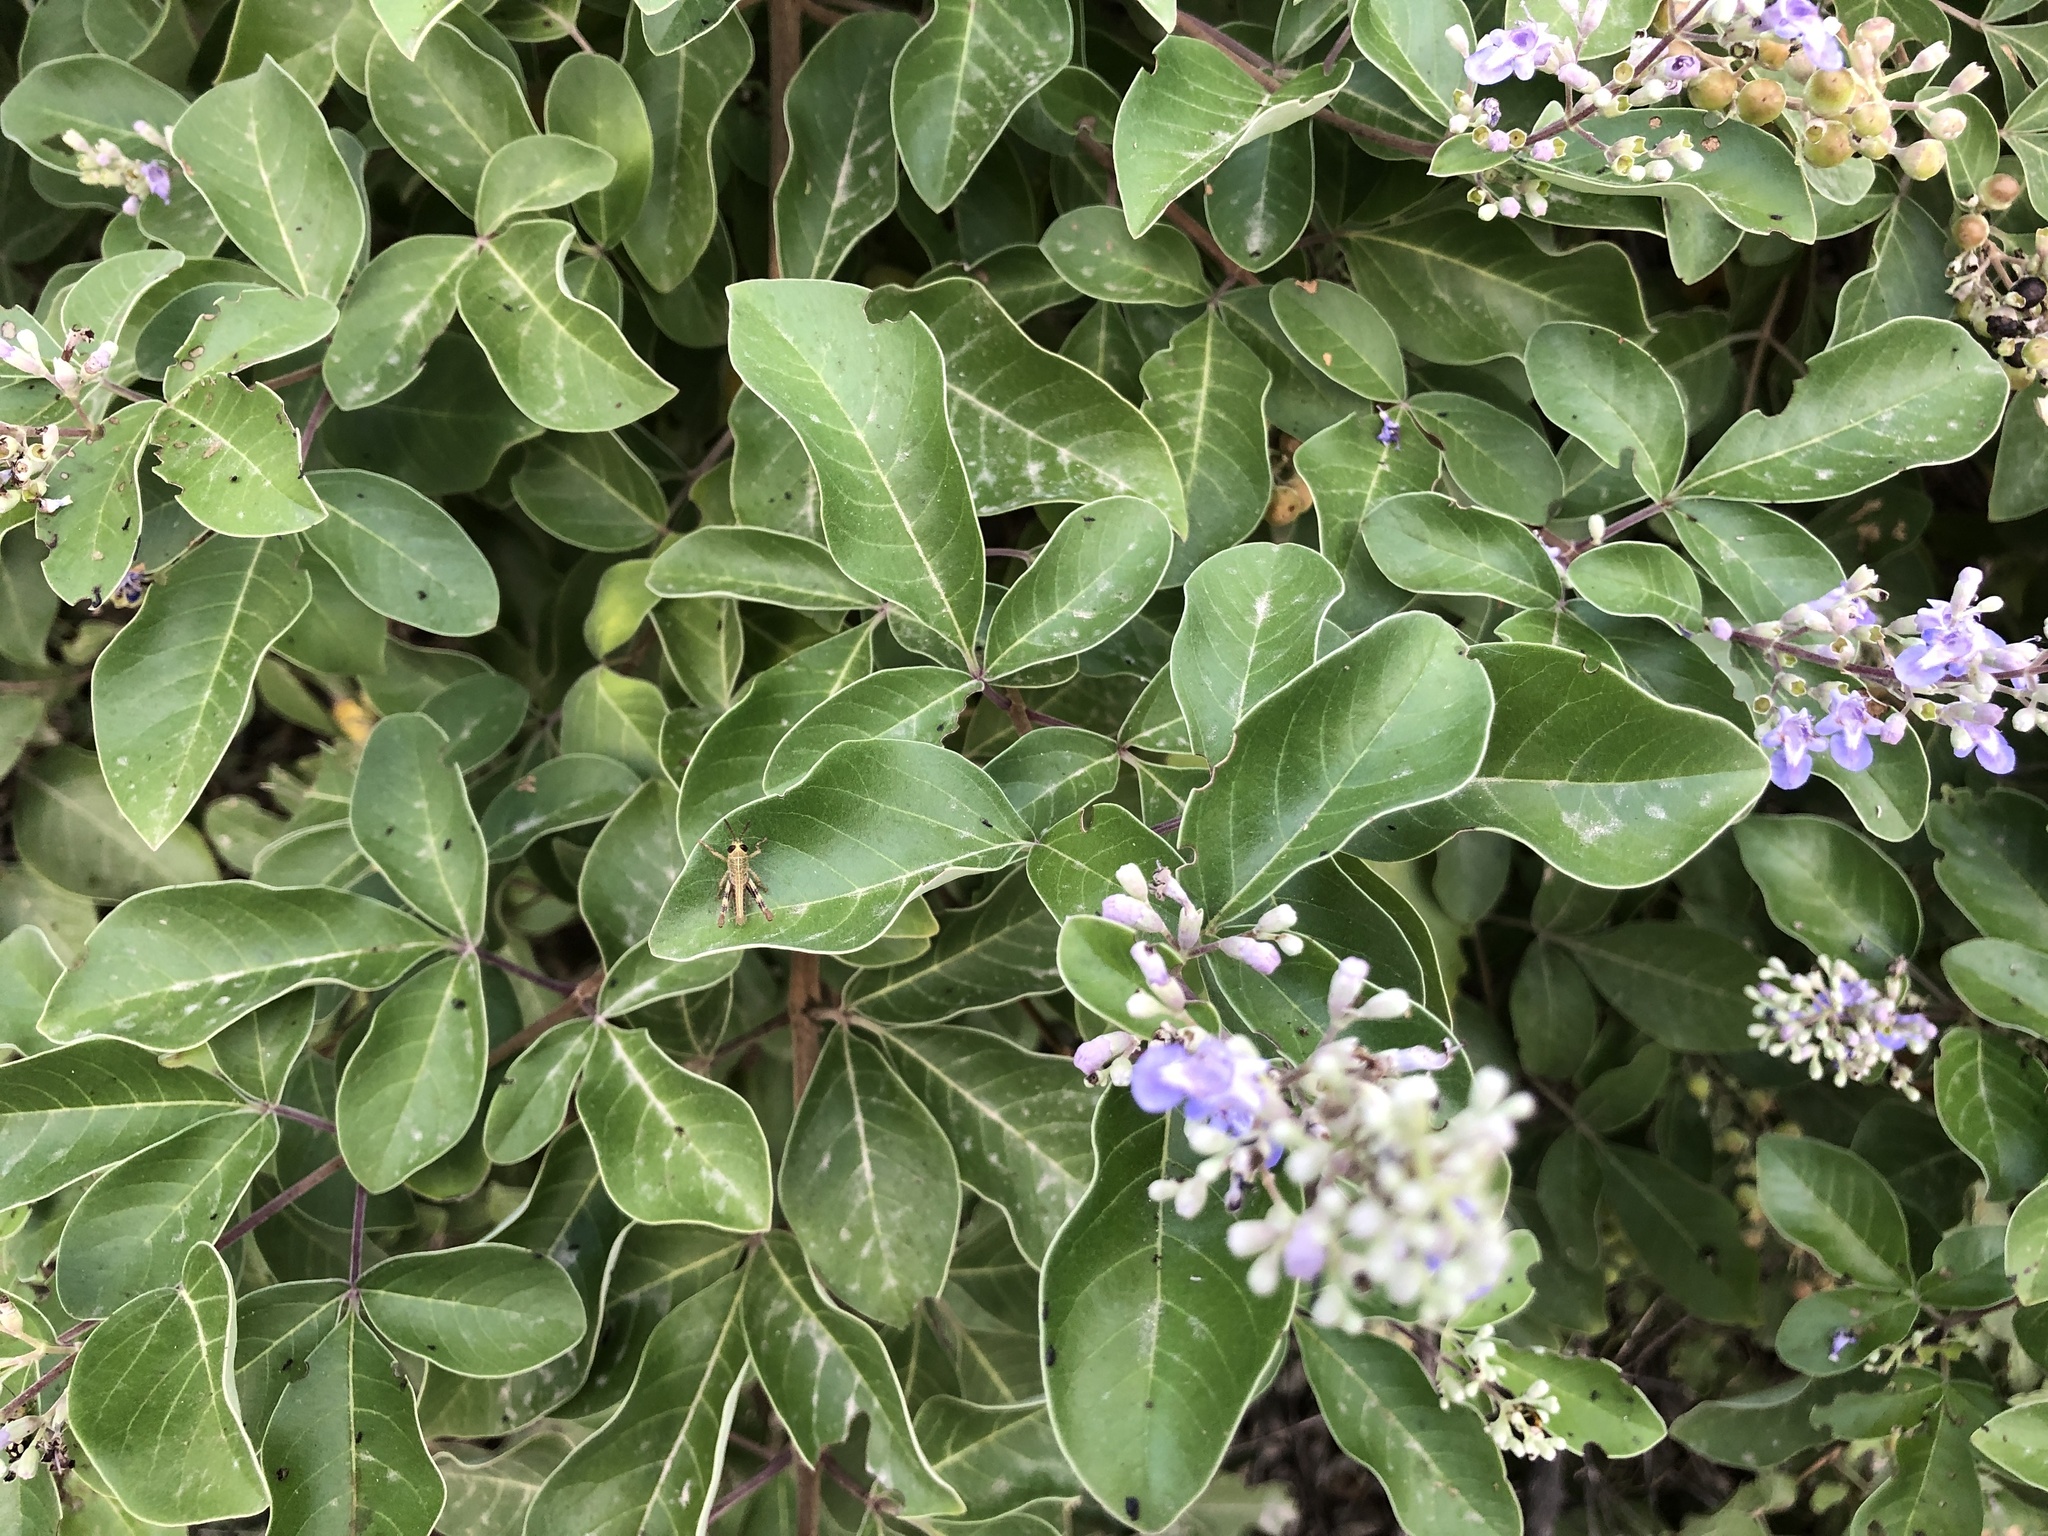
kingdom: Plantae
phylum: Tracheophyta
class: Magnoliopsida
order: Lamiales
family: Lamiaceae
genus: Vitex
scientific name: Vitex trifolia
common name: Simpleleaf chastetree
